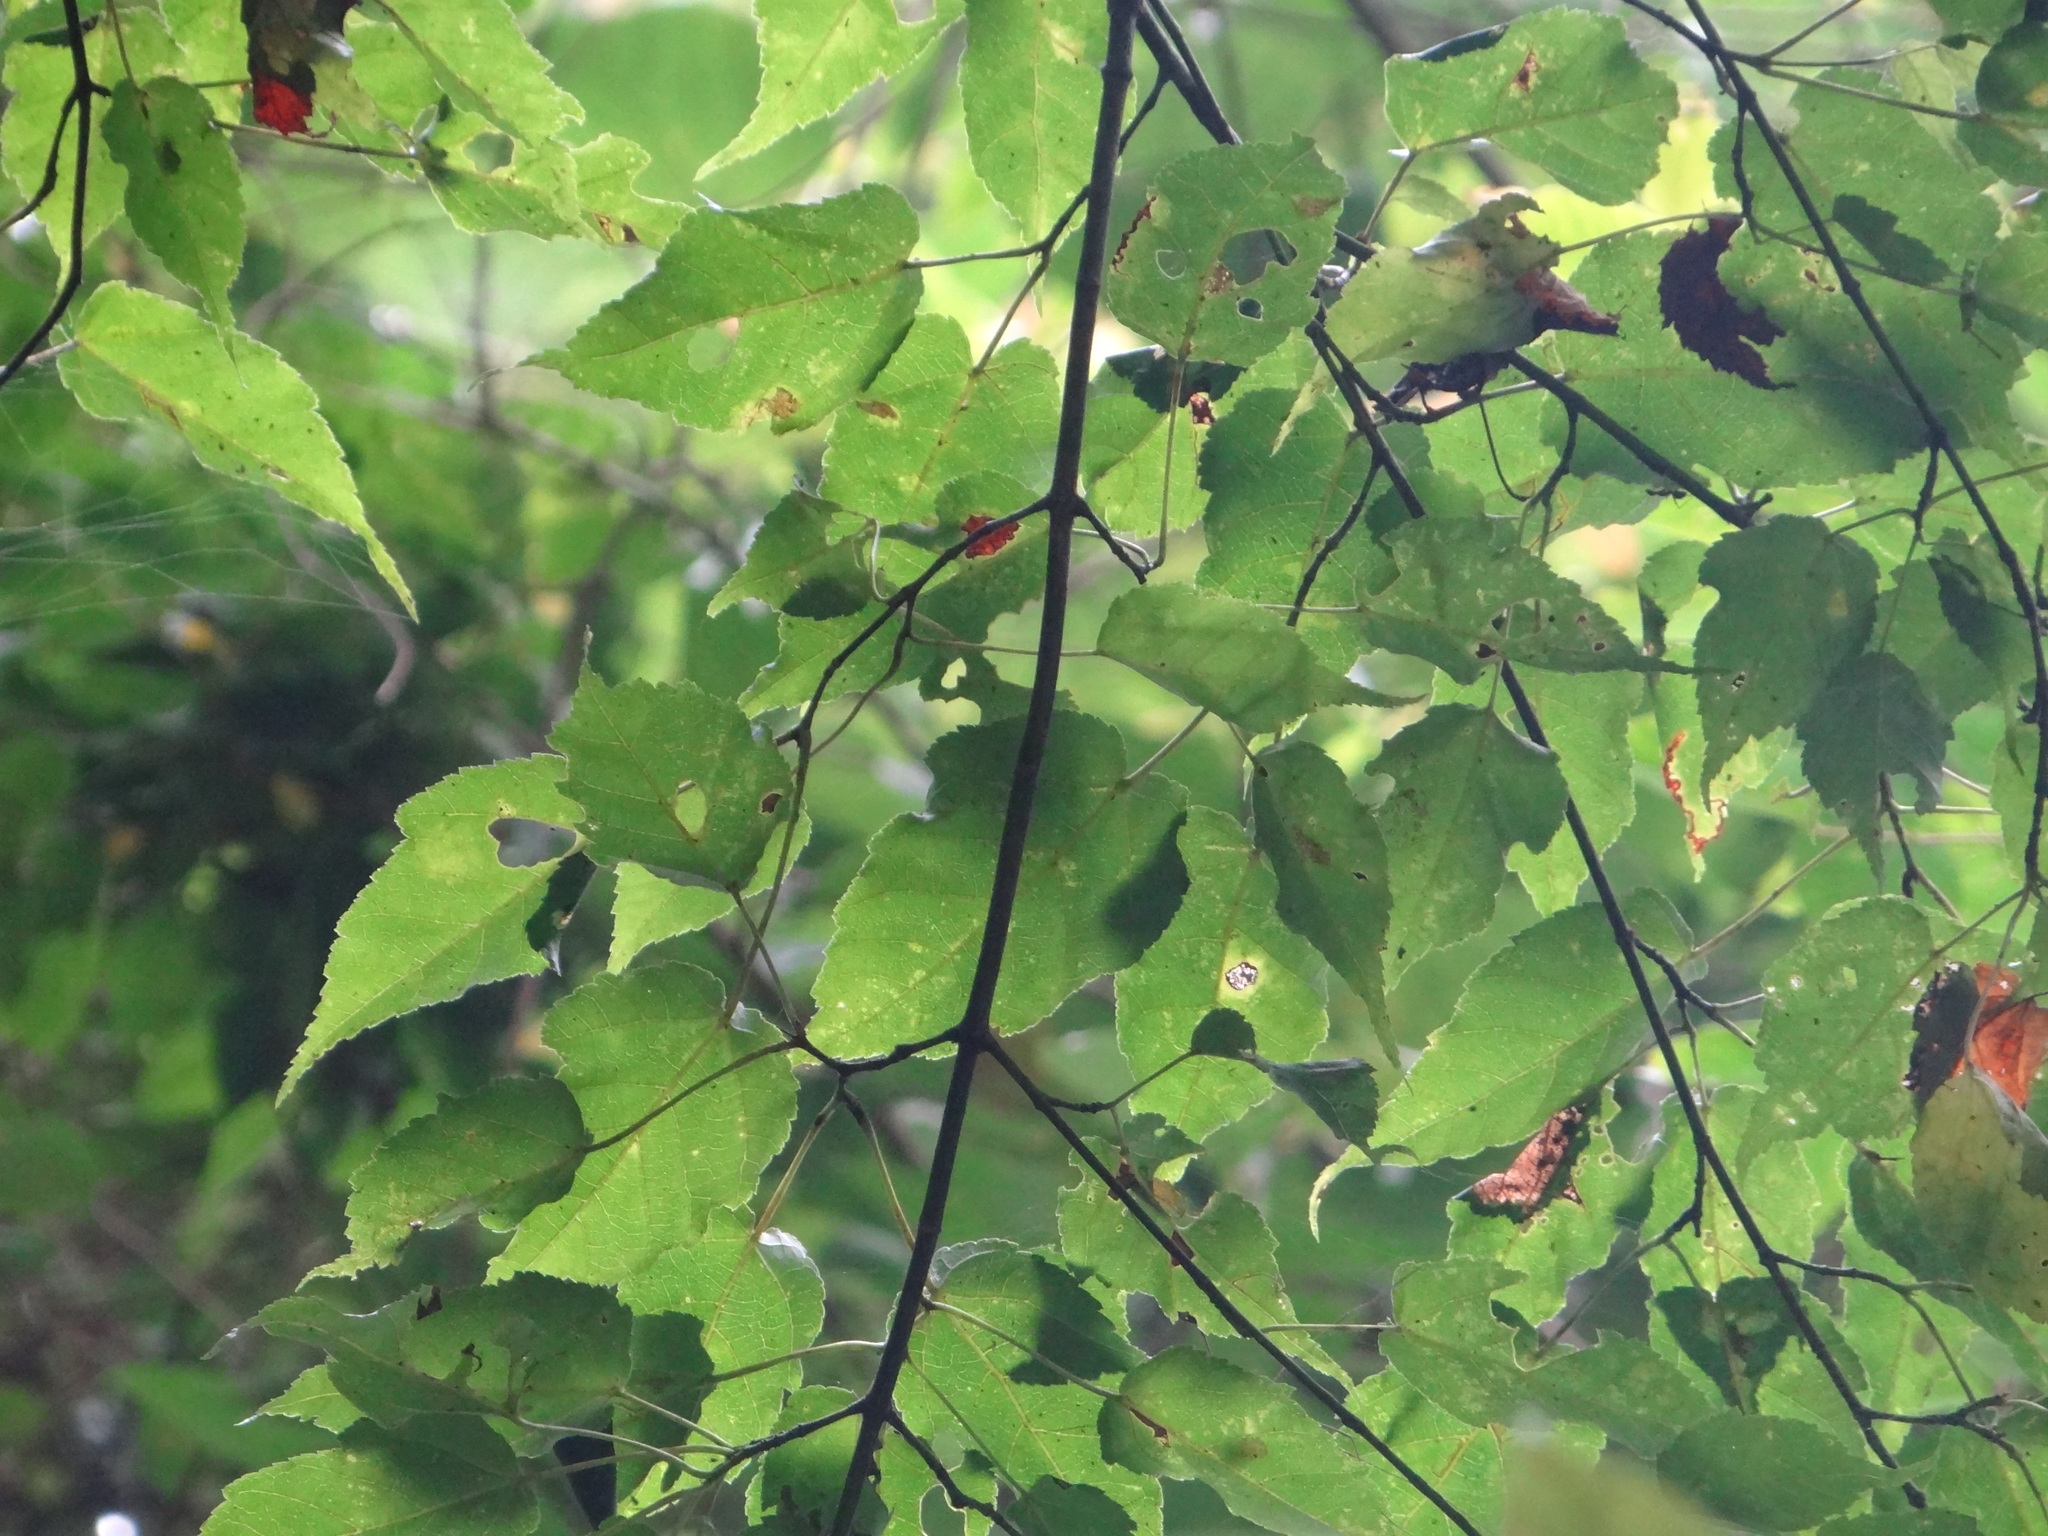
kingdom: Plantae
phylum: Tracheophyta
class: Magnoliopsida
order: Sapindales
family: Sapindaceae
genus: Acer
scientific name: Acer caudatifolium
